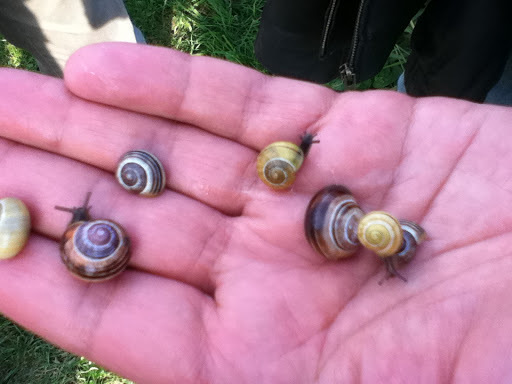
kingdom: Animalia
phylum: Mollusca
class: Gastropoda
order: Stylommatophora
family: Helicidae
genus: Cepaea
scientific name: Cepaea
